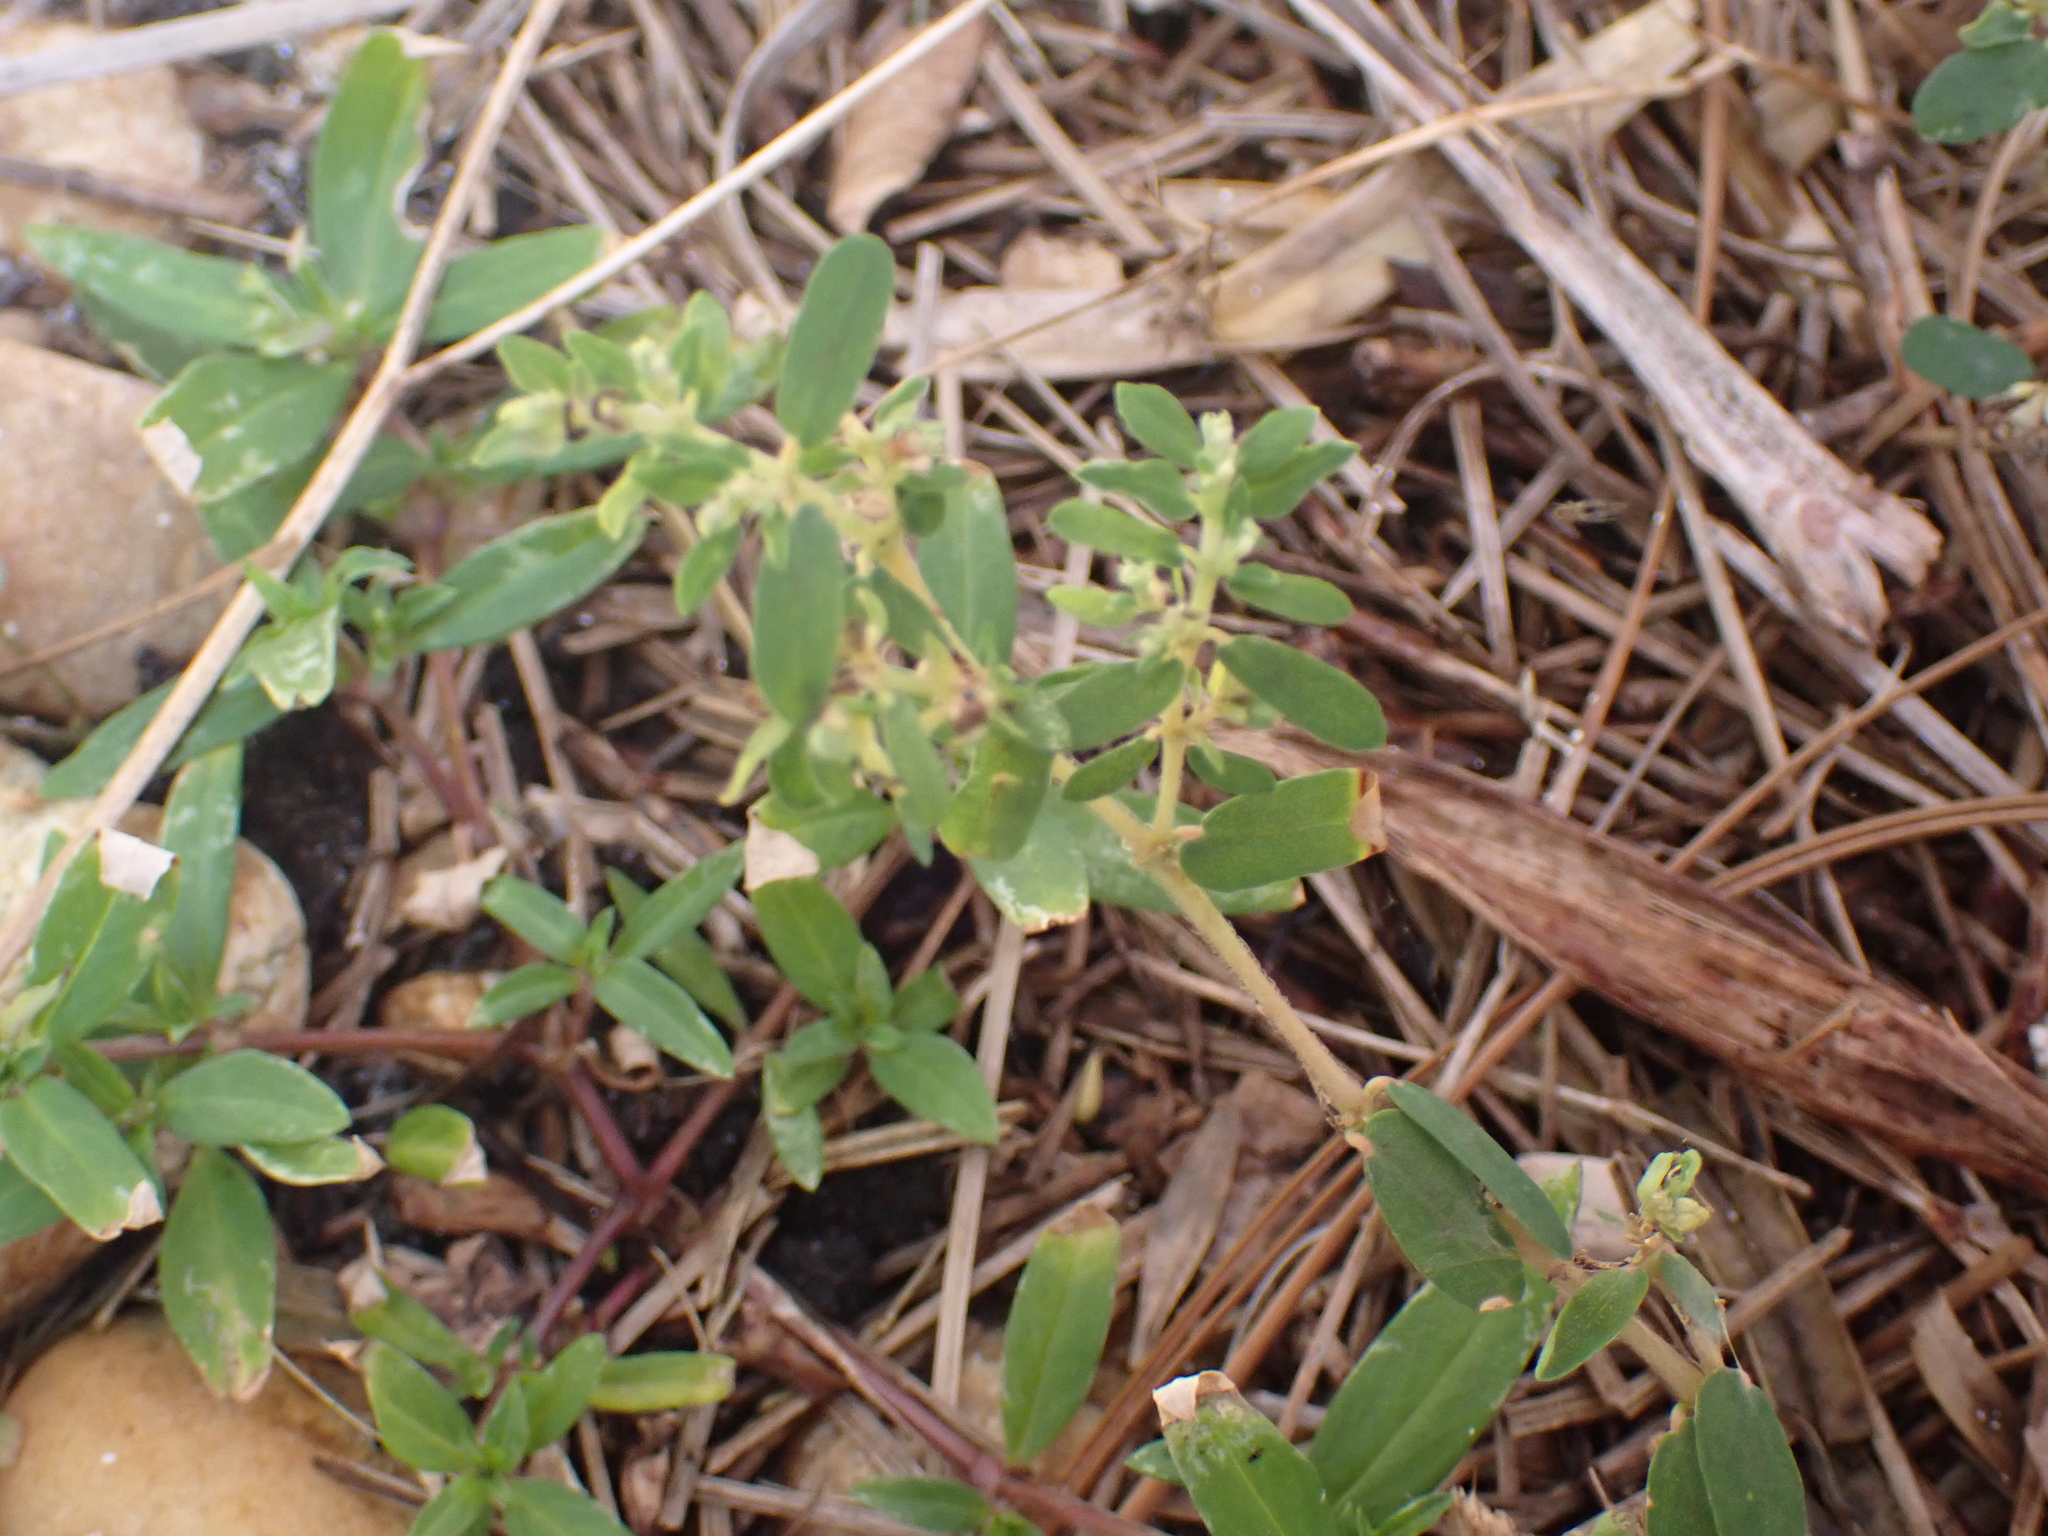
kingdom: Plantae
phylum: Tracheophyta
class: Magnoliopsida
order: Malpighiales
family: Euphorbiaceae
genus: Euphorbia
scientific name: Euphorbia maculata
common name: Spotted spurge
